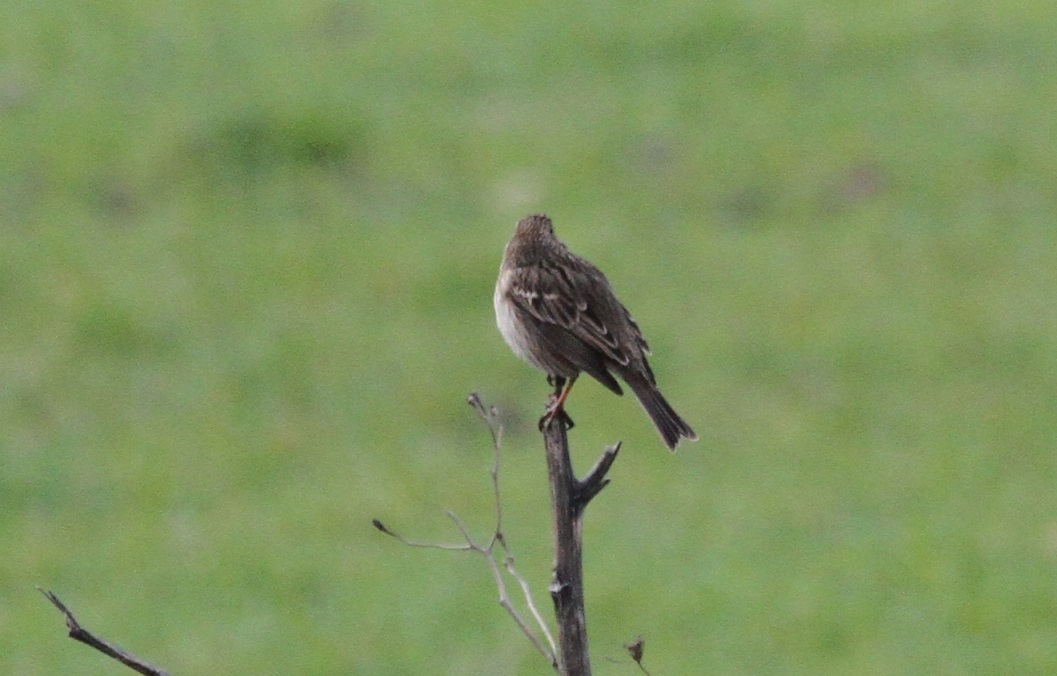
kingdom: Animalia
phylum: Chordata
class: Aves
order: Passeriformes
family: Emberizidae
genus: Emberiza
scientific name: Emberiza calandra
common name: Corn bunting
